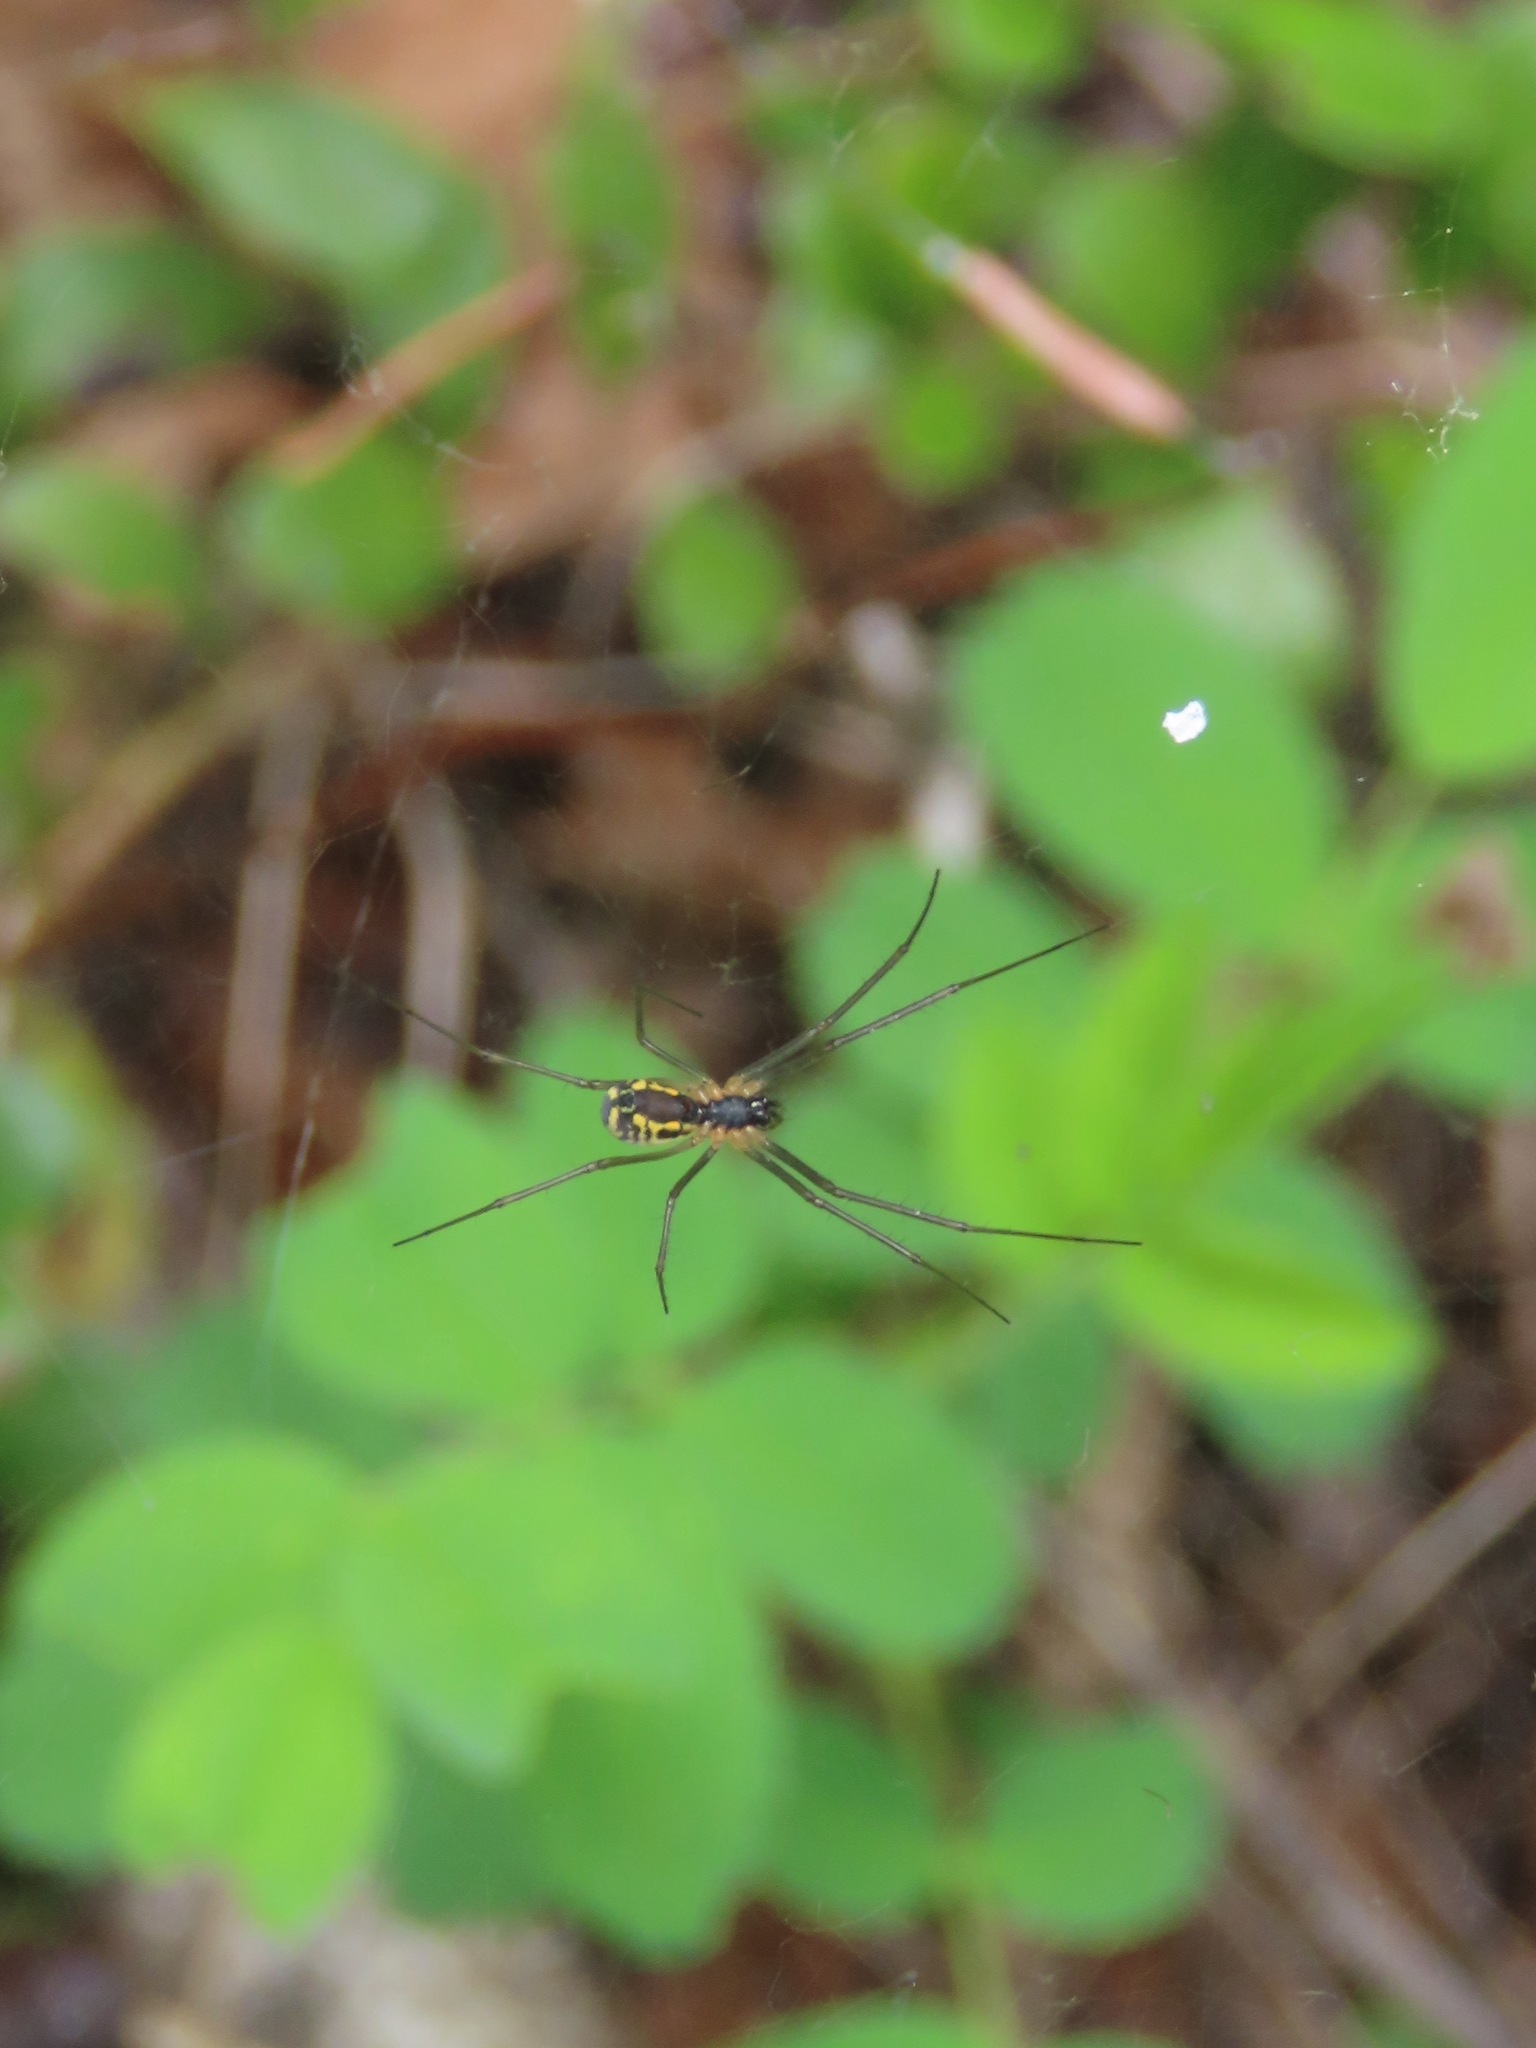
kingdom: Animalia
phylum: Arthropoda
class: Arachnida
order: Araneae
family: Linyphiidae
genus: Neriene
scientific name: Neriene radiata
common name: Filmy dome spider
